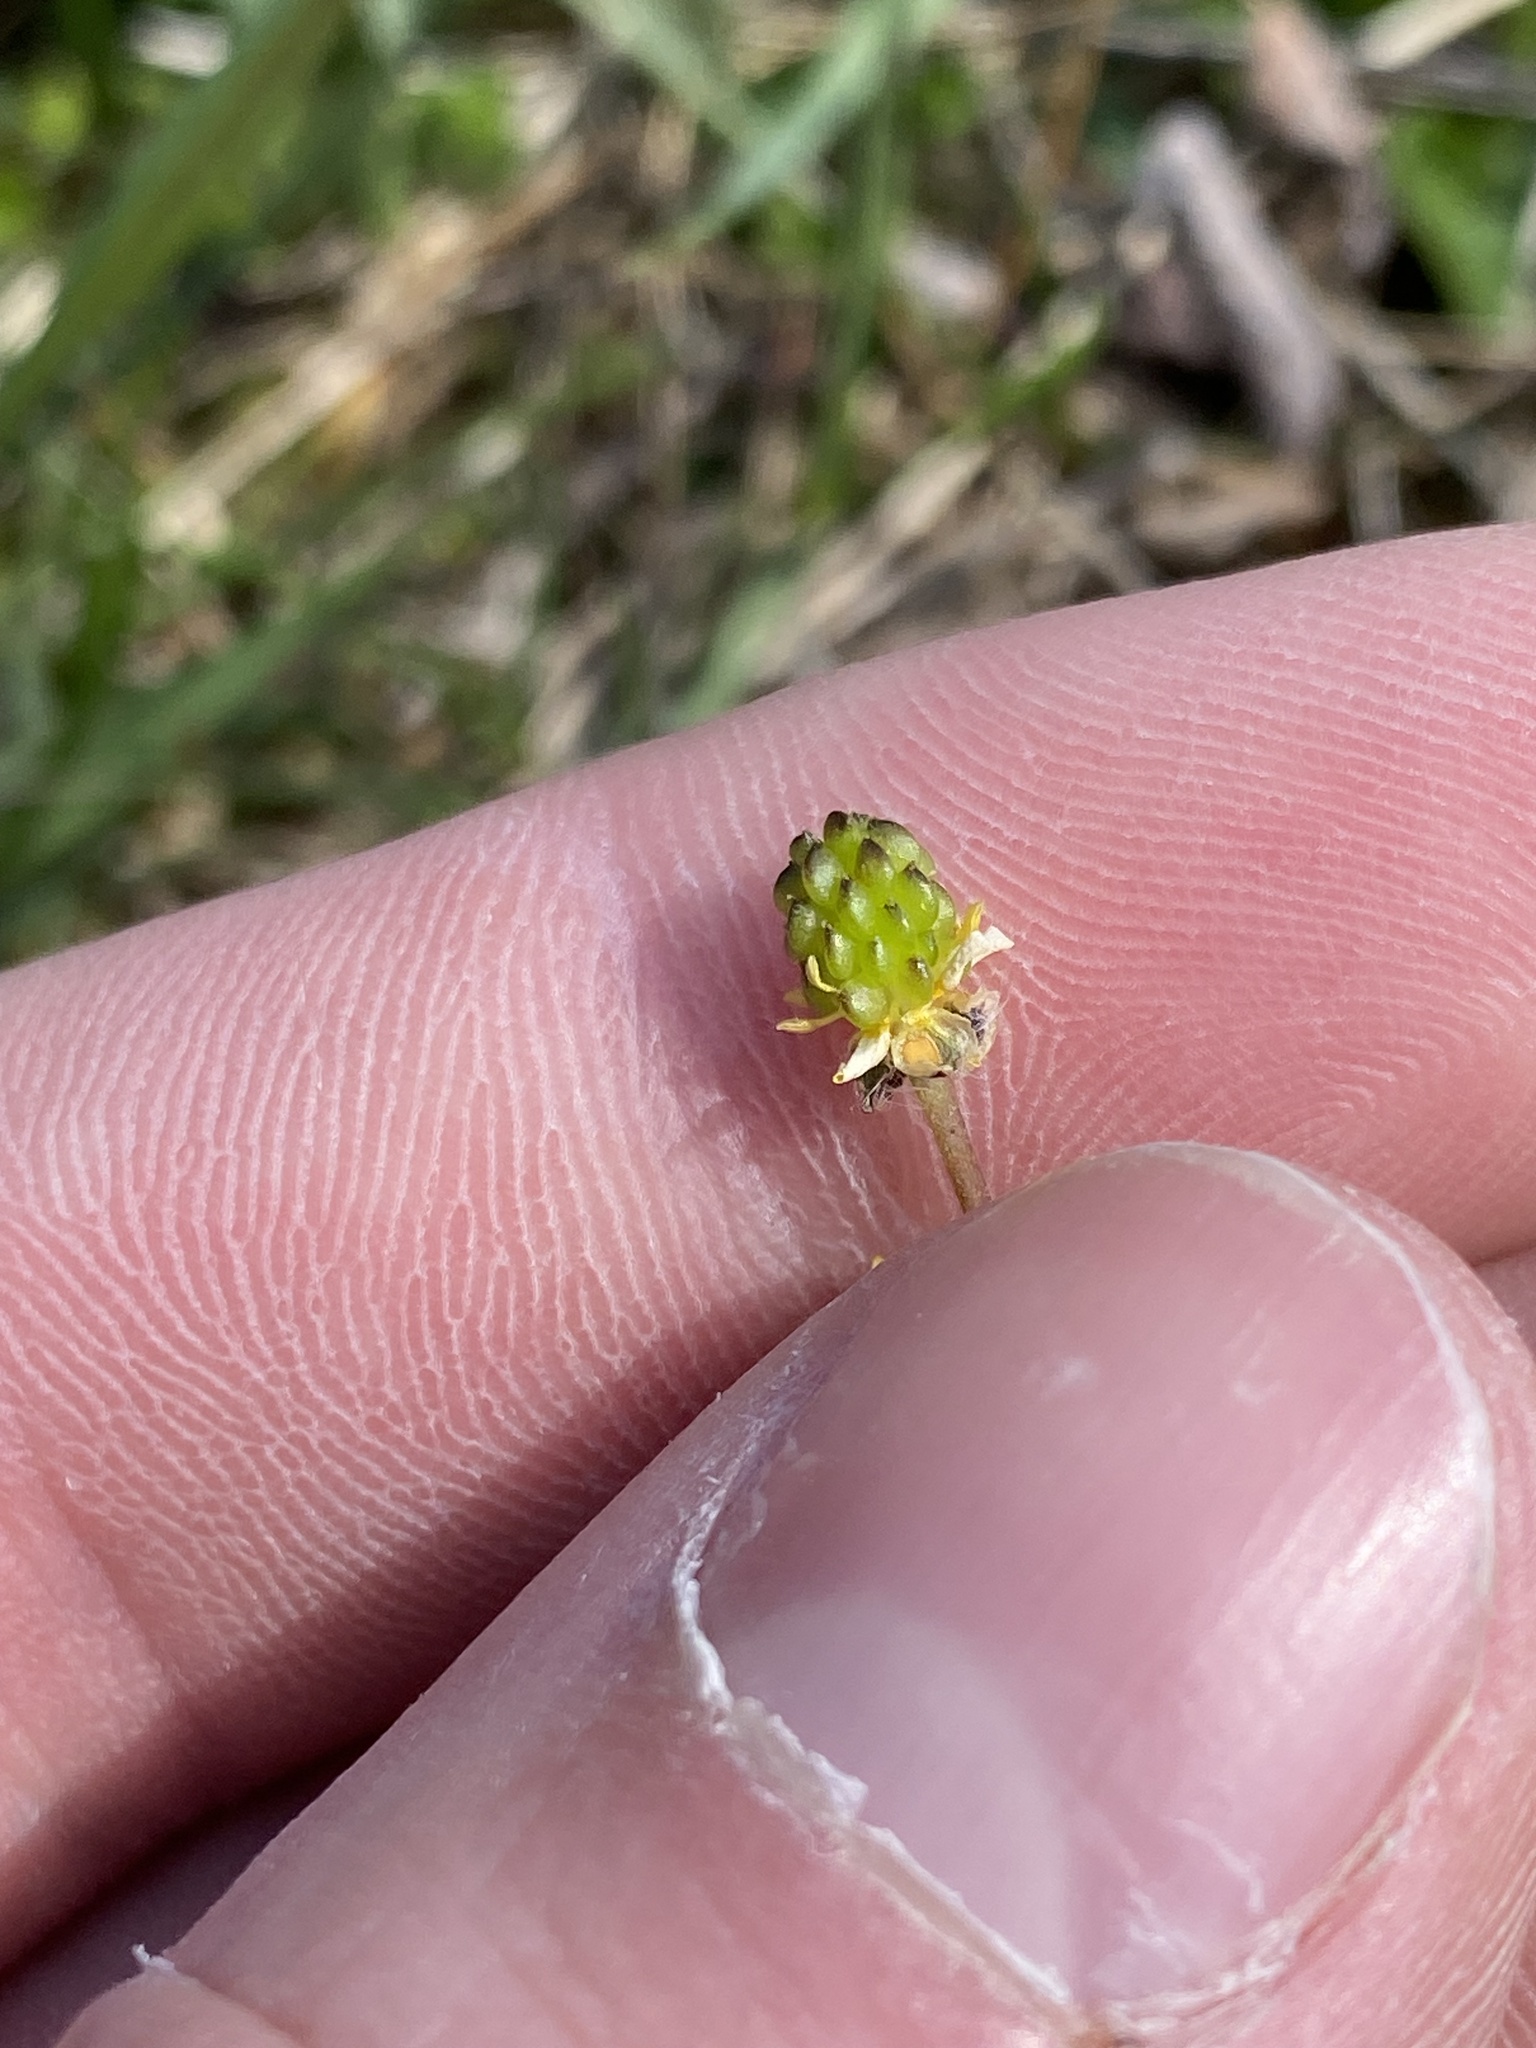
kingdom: Plantae
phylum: Tracheophyta
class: Magnoliopsida
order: Ranunculales
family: Ranunculaceae
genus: Ranunculus
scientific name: Ranunculus micranthus
